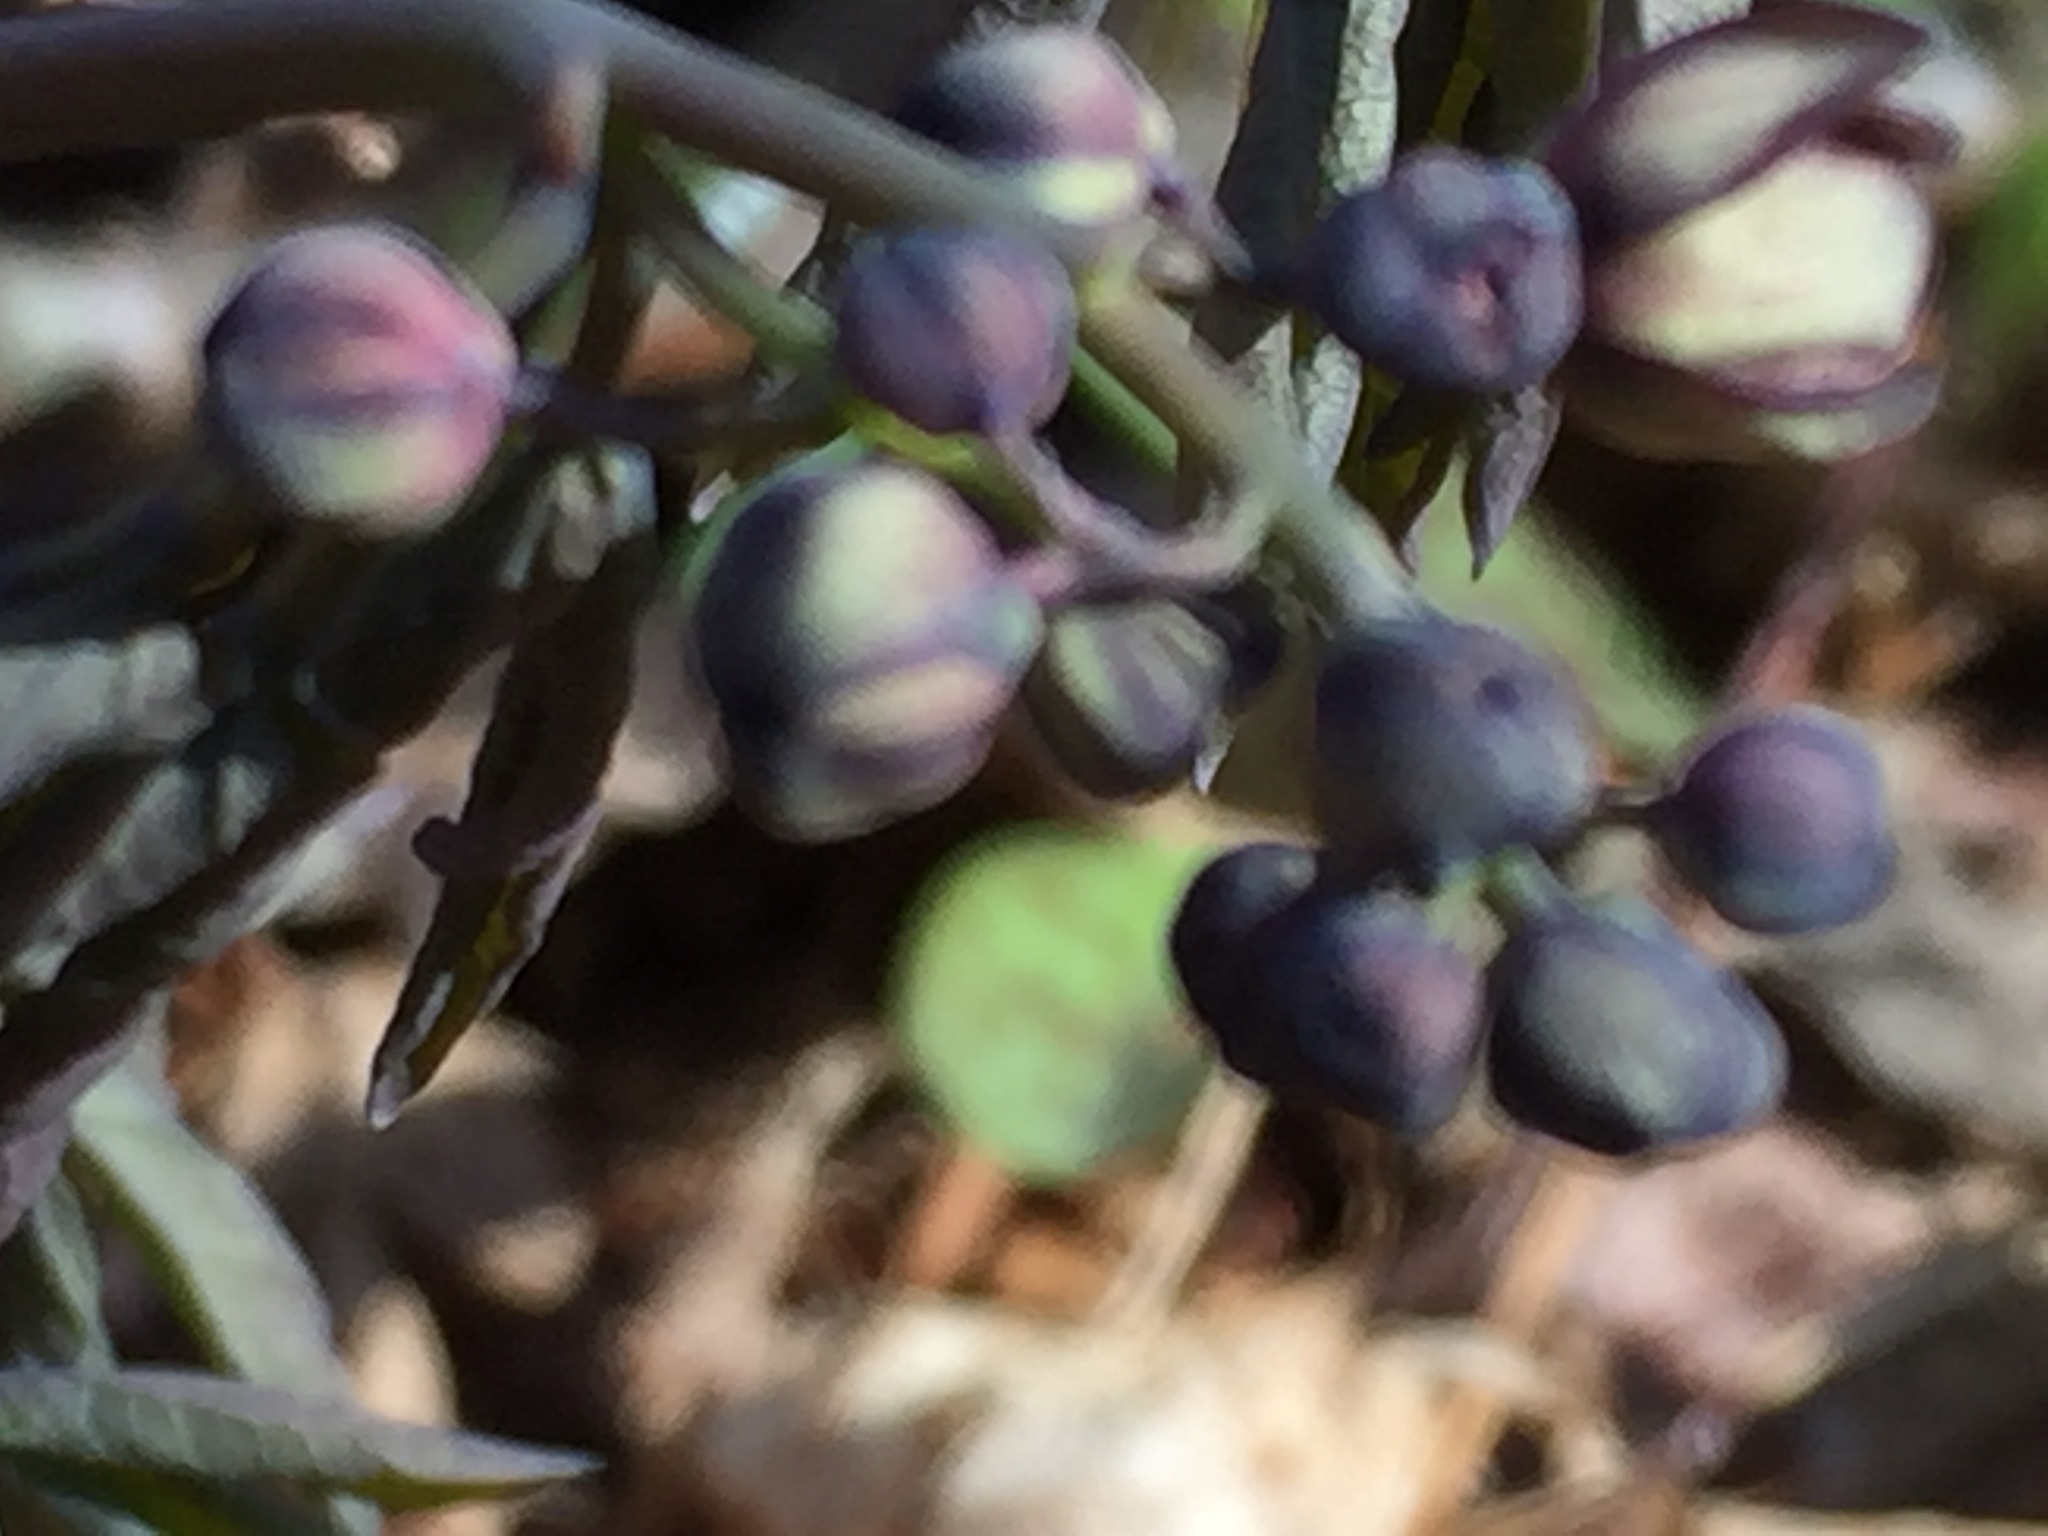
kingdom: Plantae
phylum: Tracheophyta
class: Magnoliopsida
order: Ranunculales
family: Berberidaceae
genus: Caulophyllum
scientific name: Caulophyllum giganteum
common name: Blue cohosh
